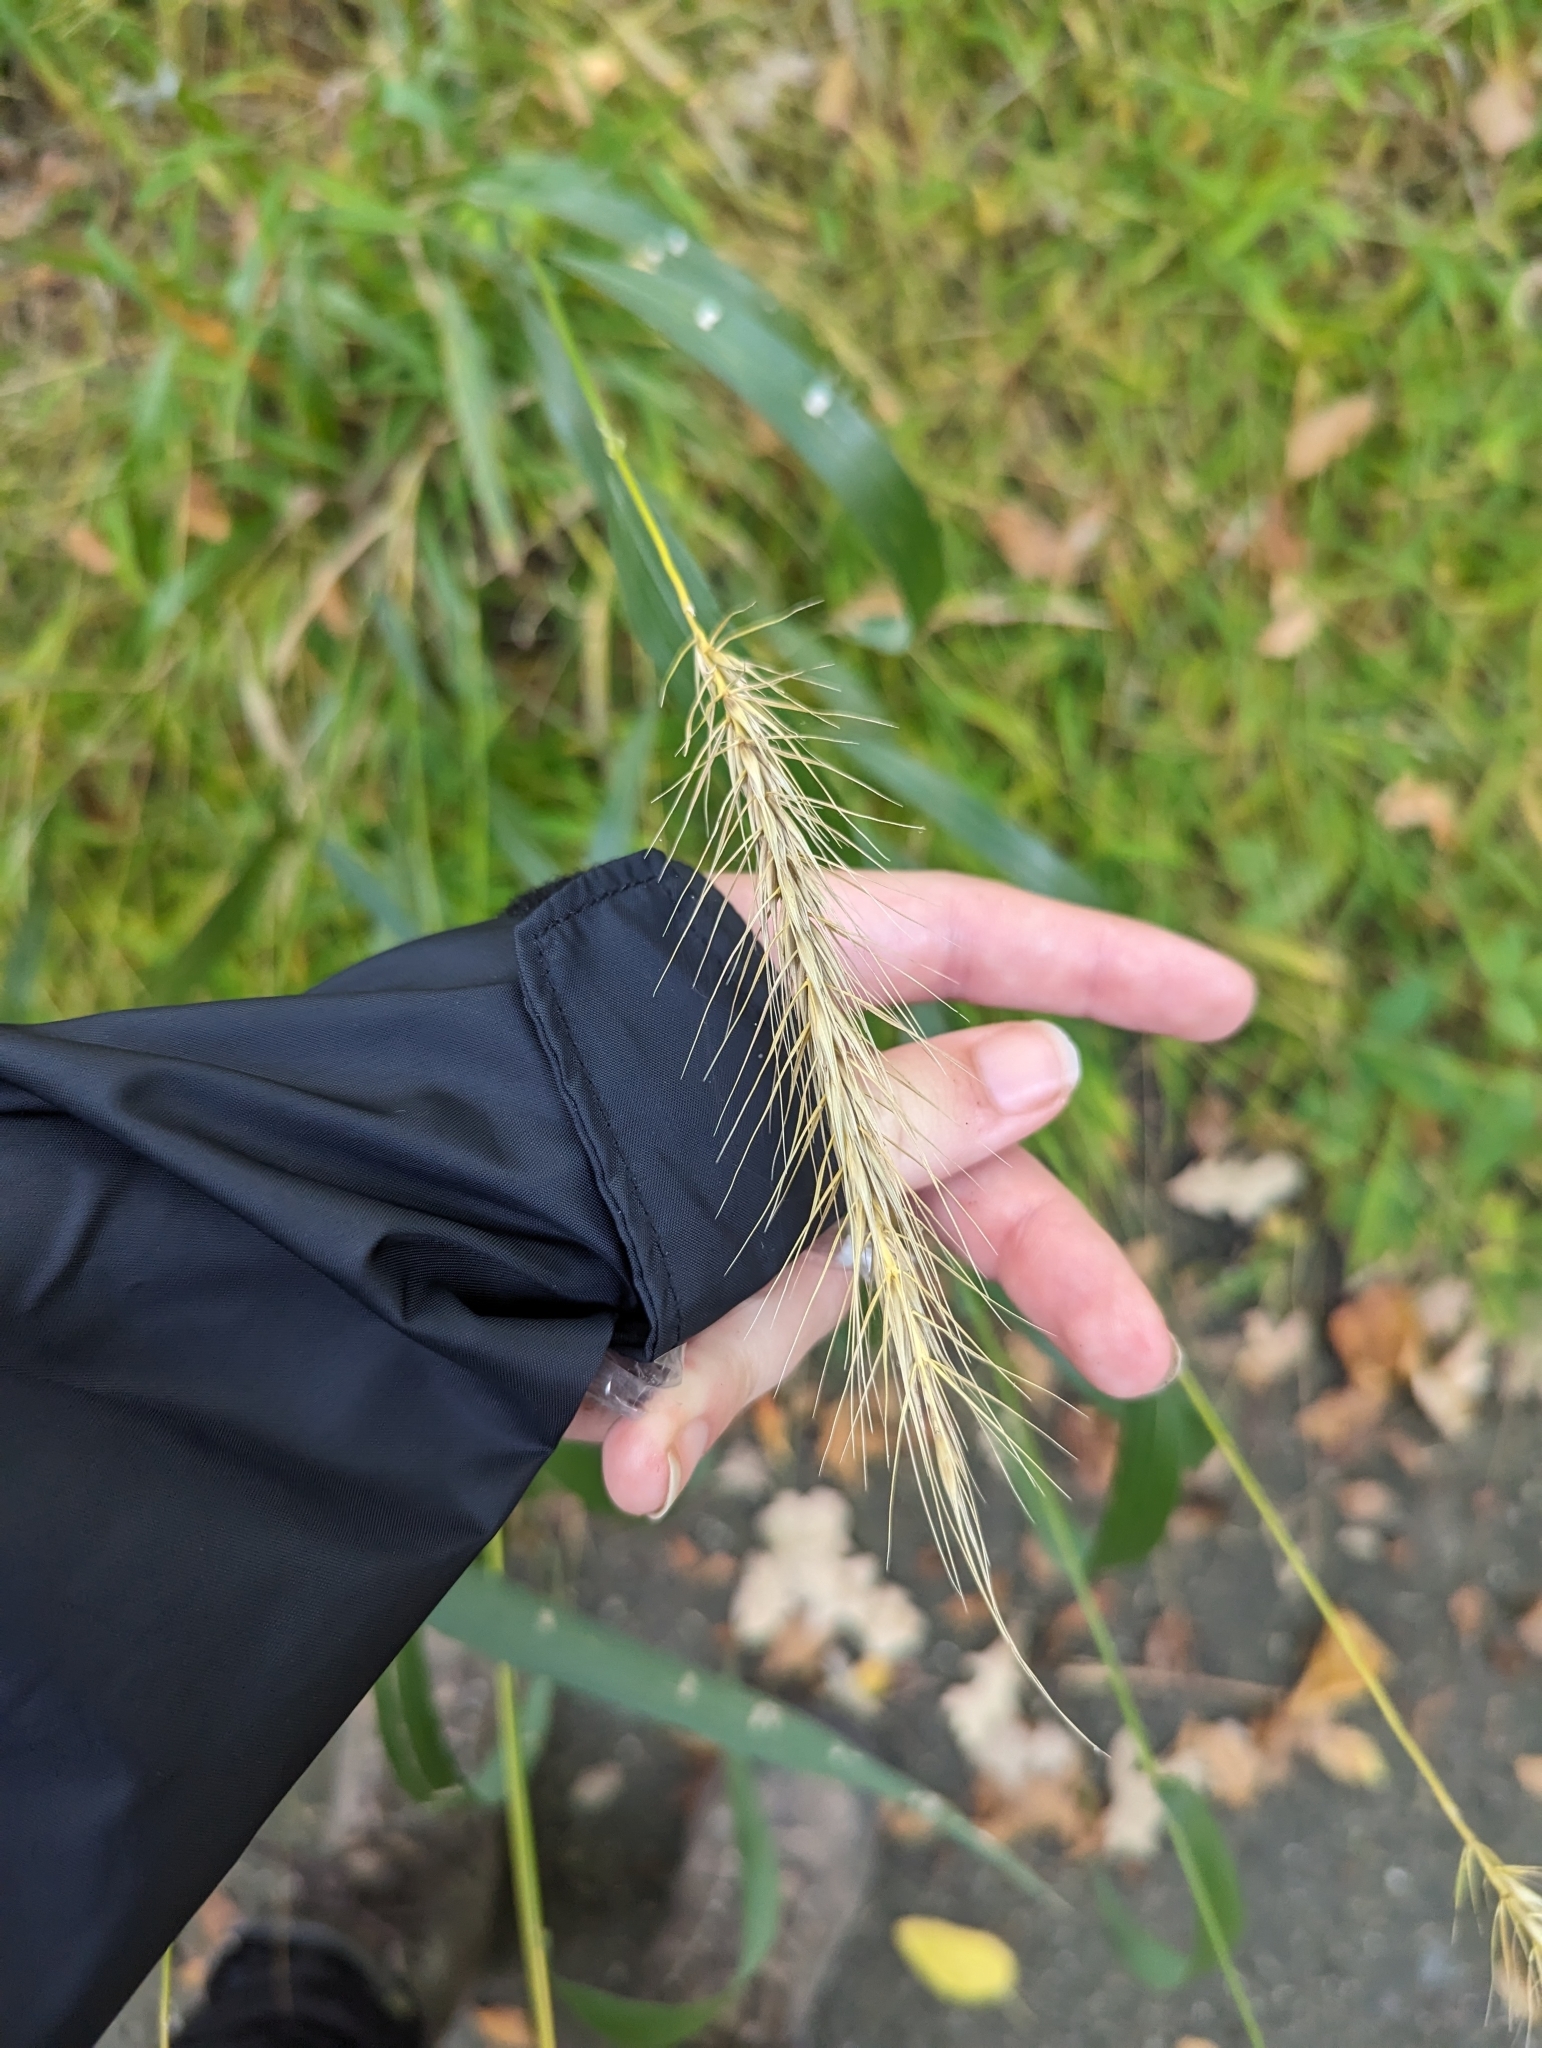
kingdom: Plantae
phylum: Tracheophyta
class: Liliopsida
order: Poales
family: Poaceae
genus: Elymus
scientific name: Elymus canadensis
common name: Canada wild rye
